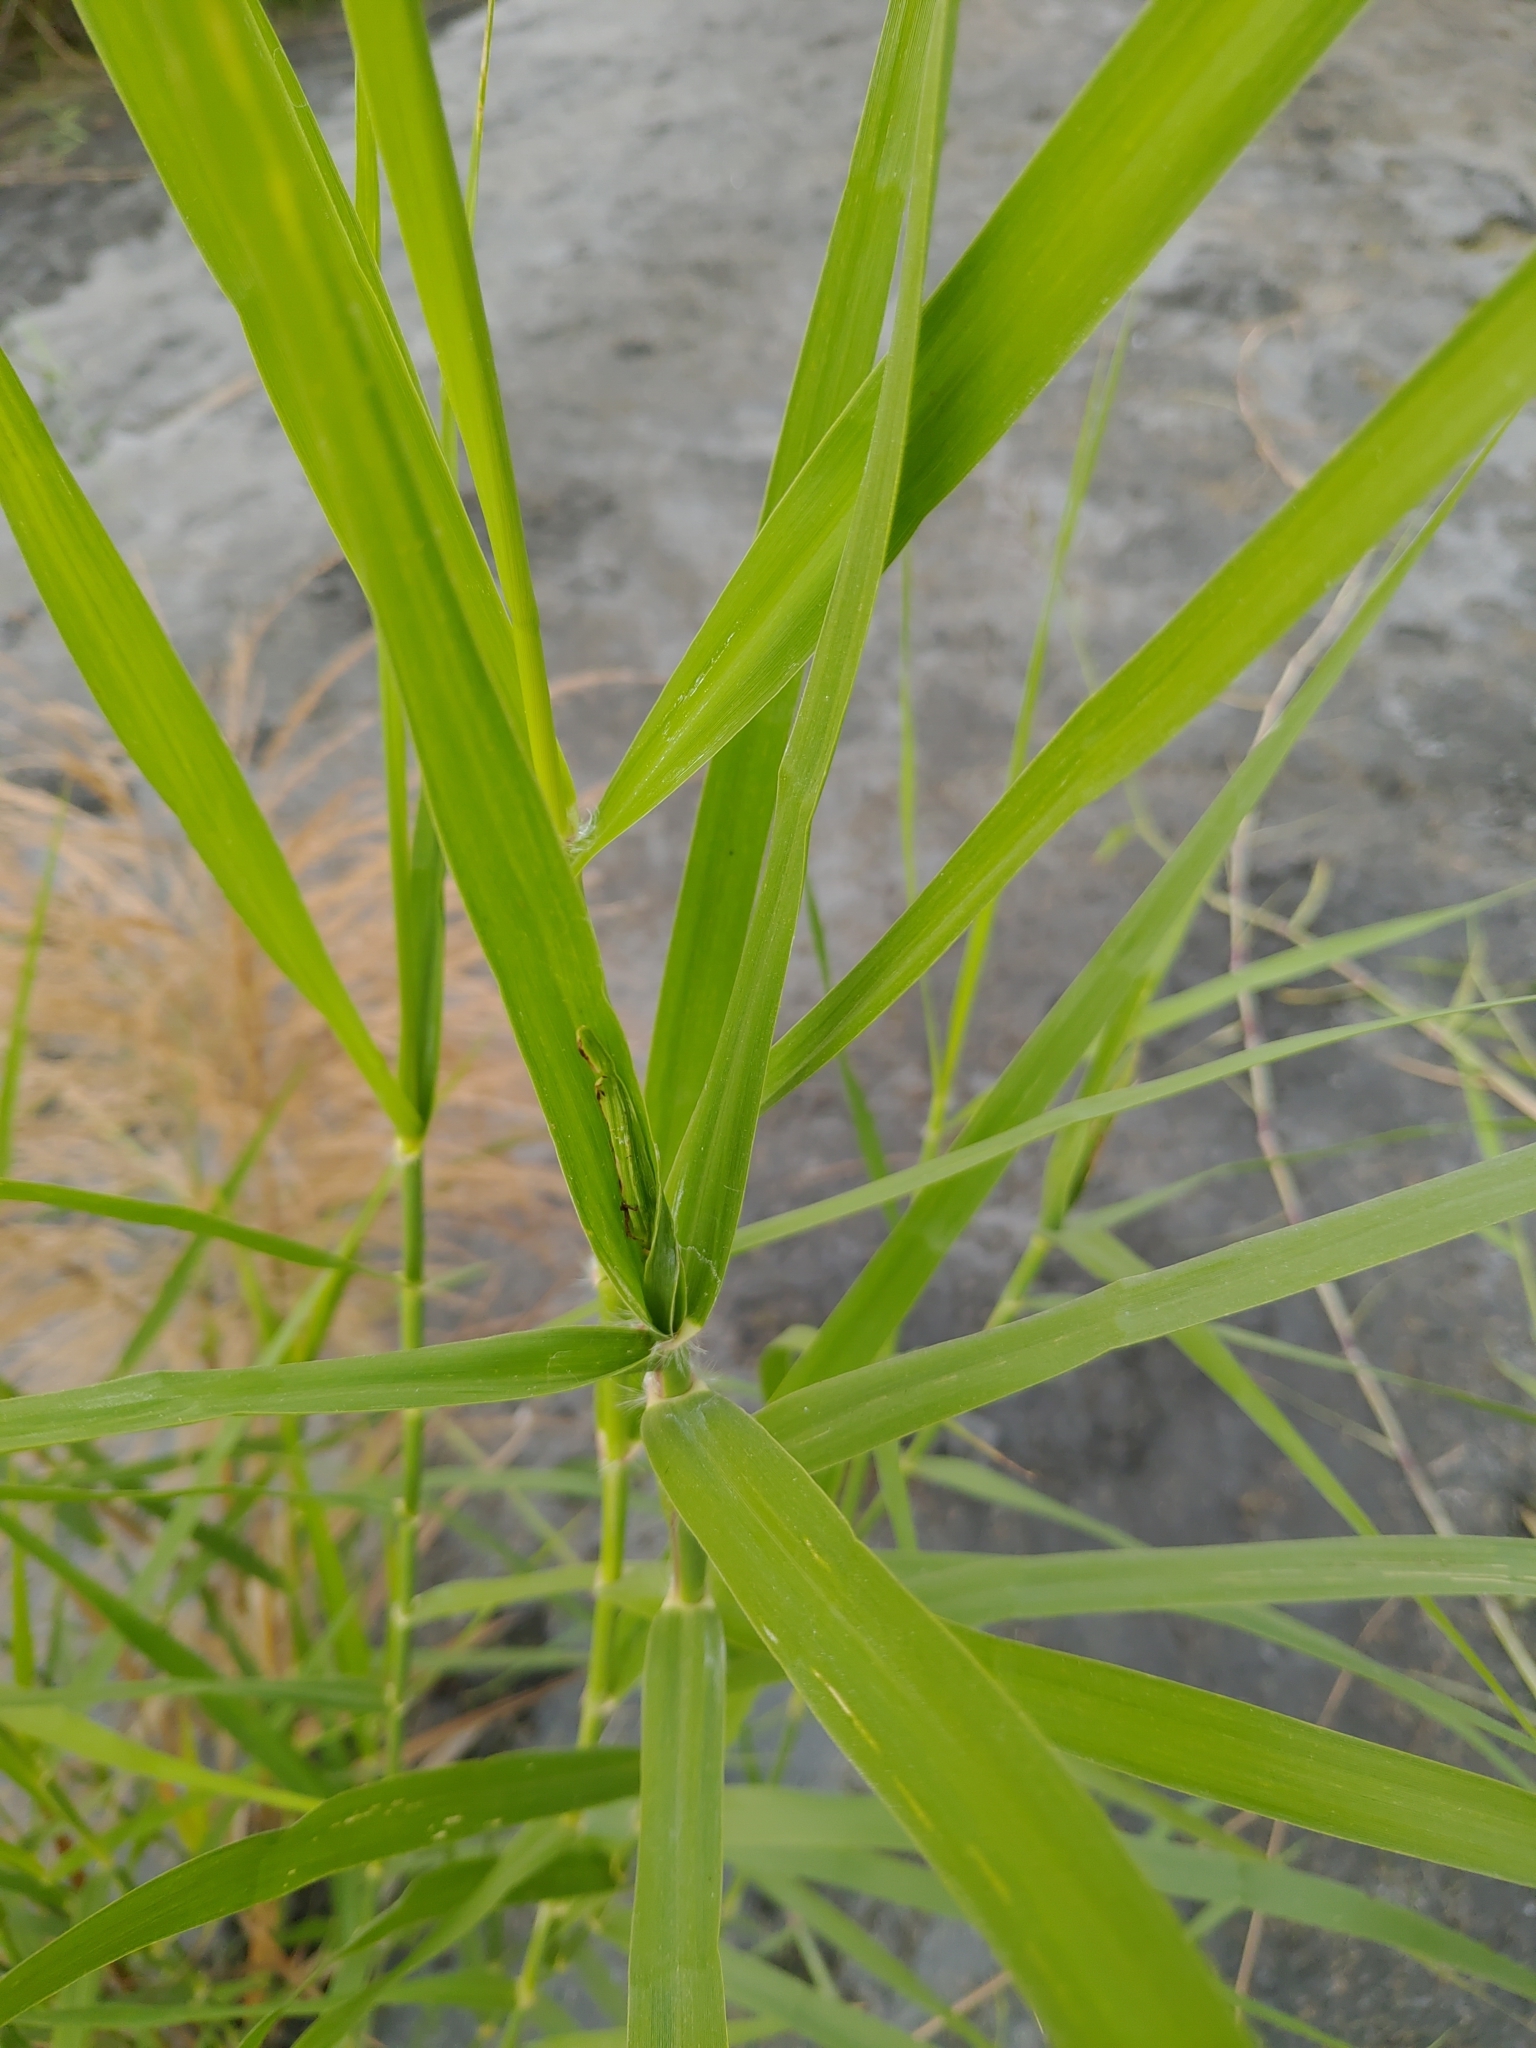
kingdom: Plantae
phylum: Tracheophyta
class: Liliopsida
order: Poales
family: Poaceae
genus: Phragmites
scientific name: Phragmites karka
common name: Tropical reed
